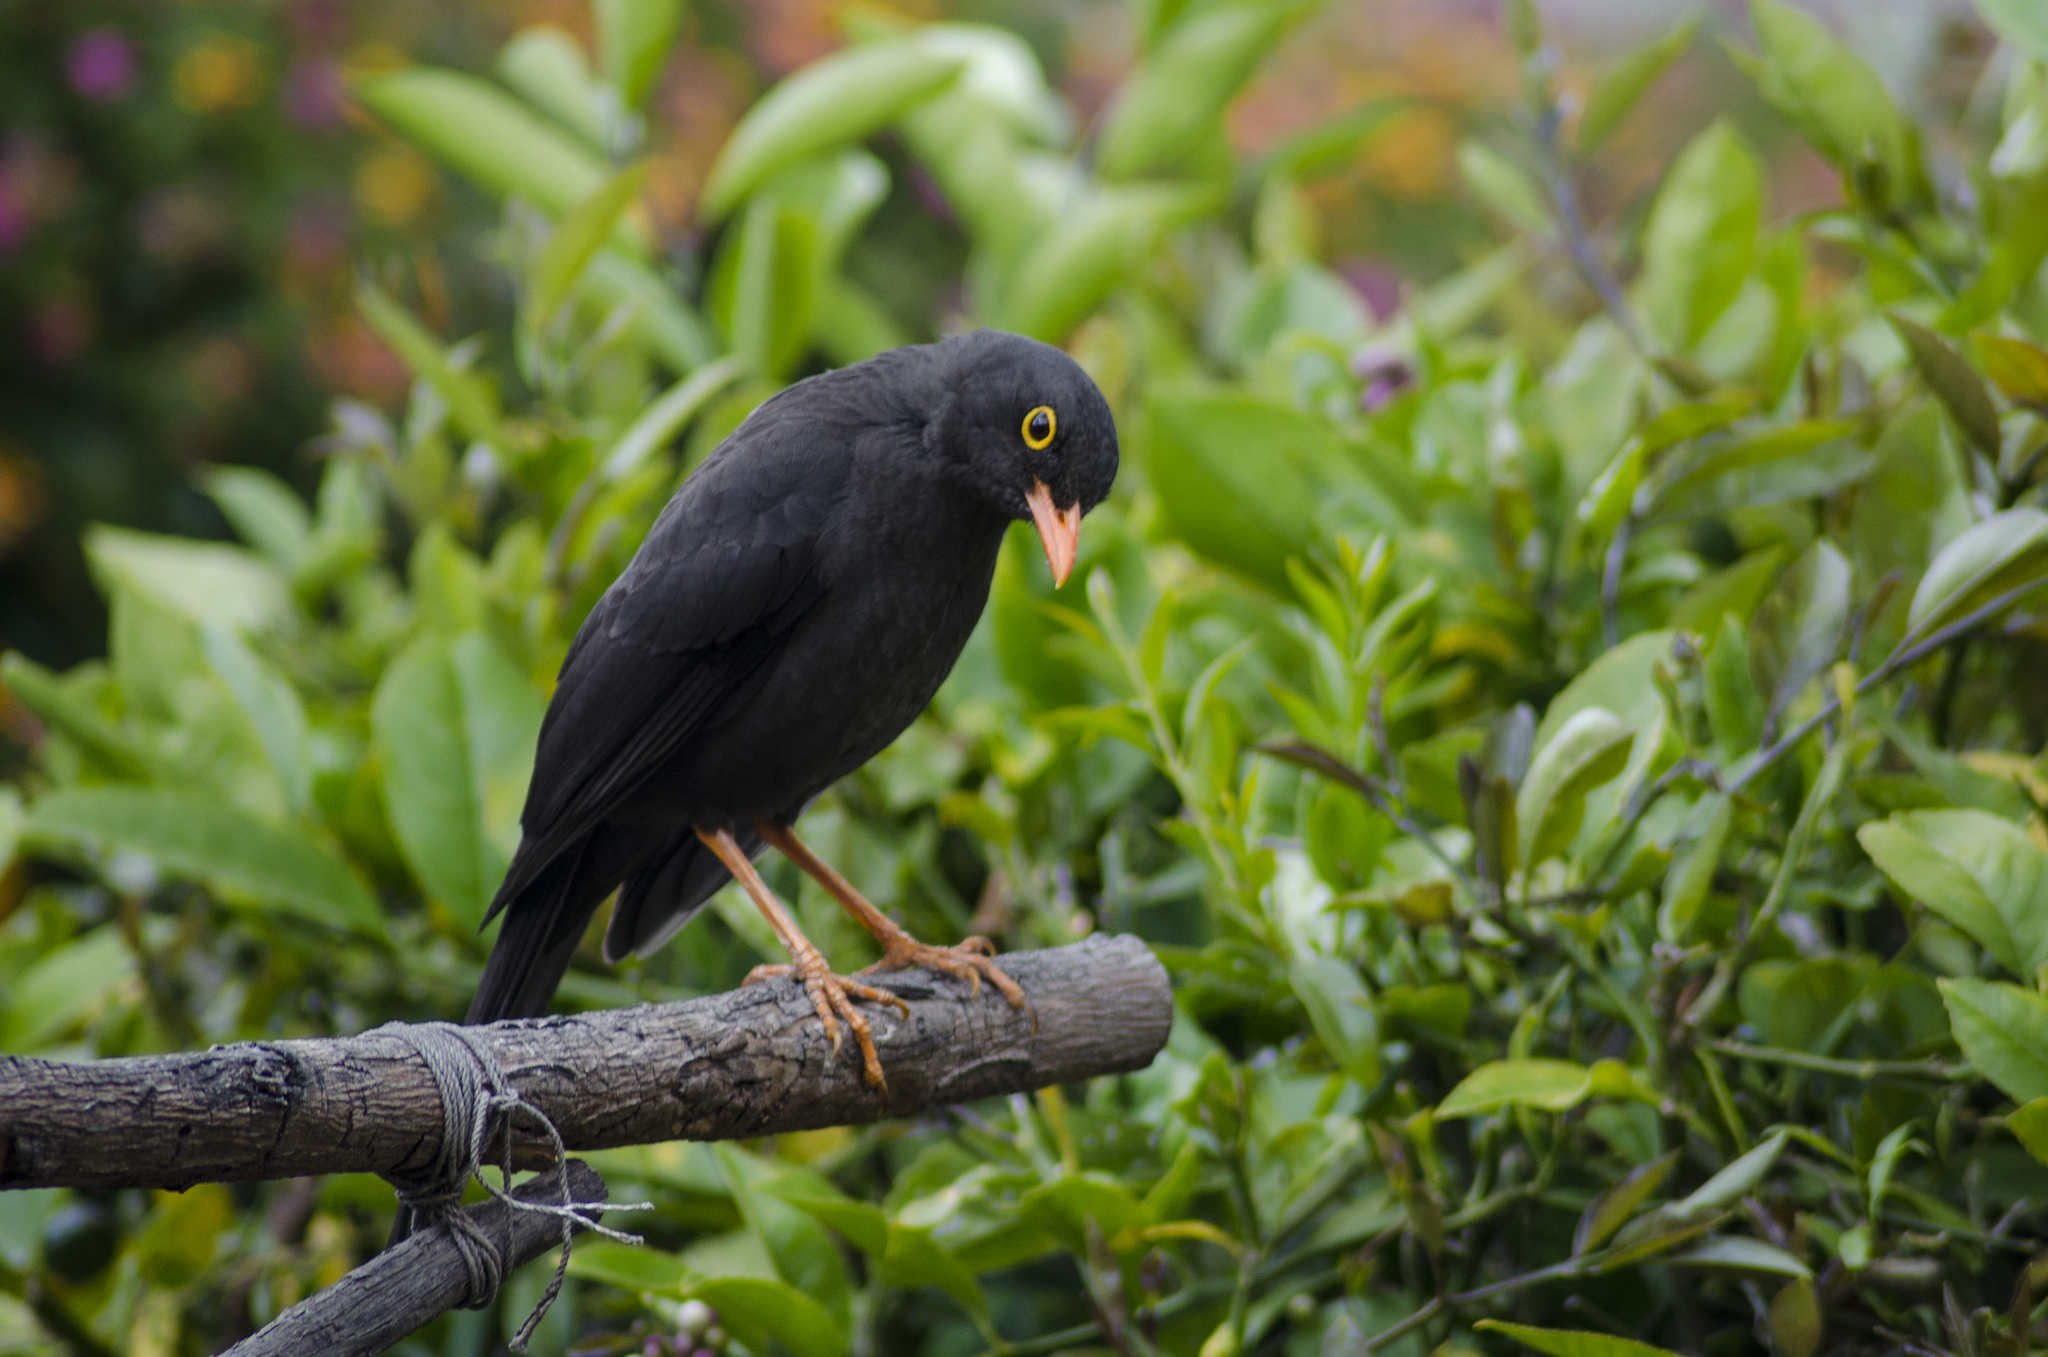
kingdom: Animalia
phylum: Chordata
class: Aves
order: Passeriformes
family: Turdidae
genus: Turdus
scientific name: Turdus fuscater
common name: Great thrush
